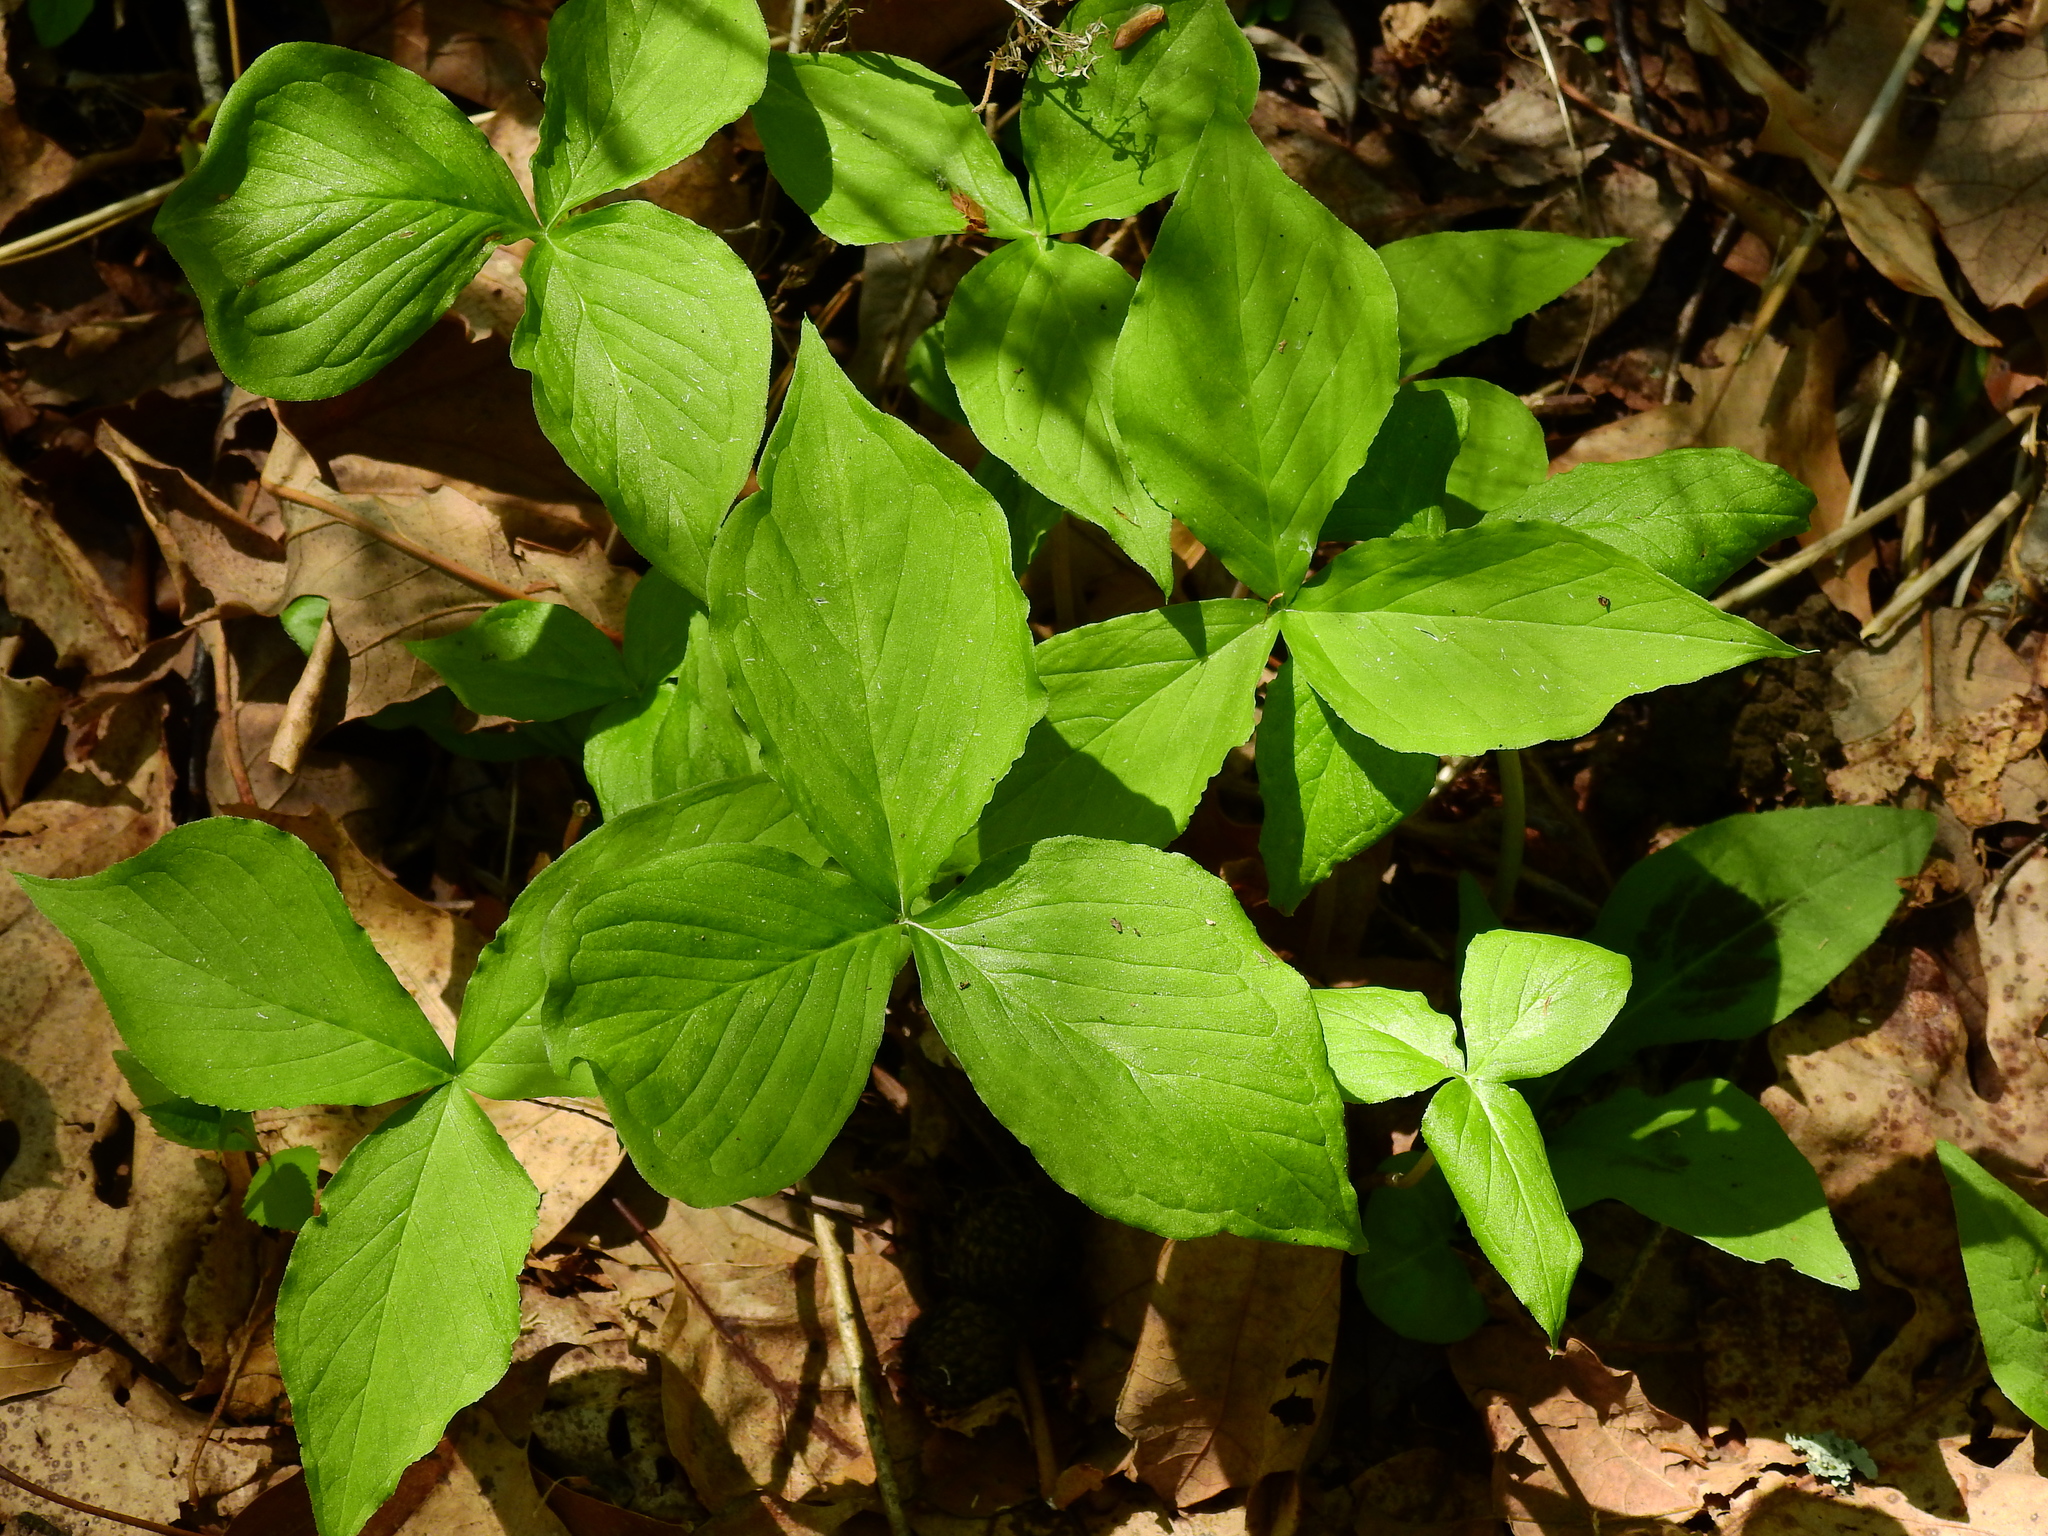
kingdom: Plantae
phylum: Tracheophyta
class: Liliopsida
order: Alismatales
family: Araceae
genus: Arisaema
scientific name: Arisaema triphyllum
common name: Jack-in-the-pulpit
